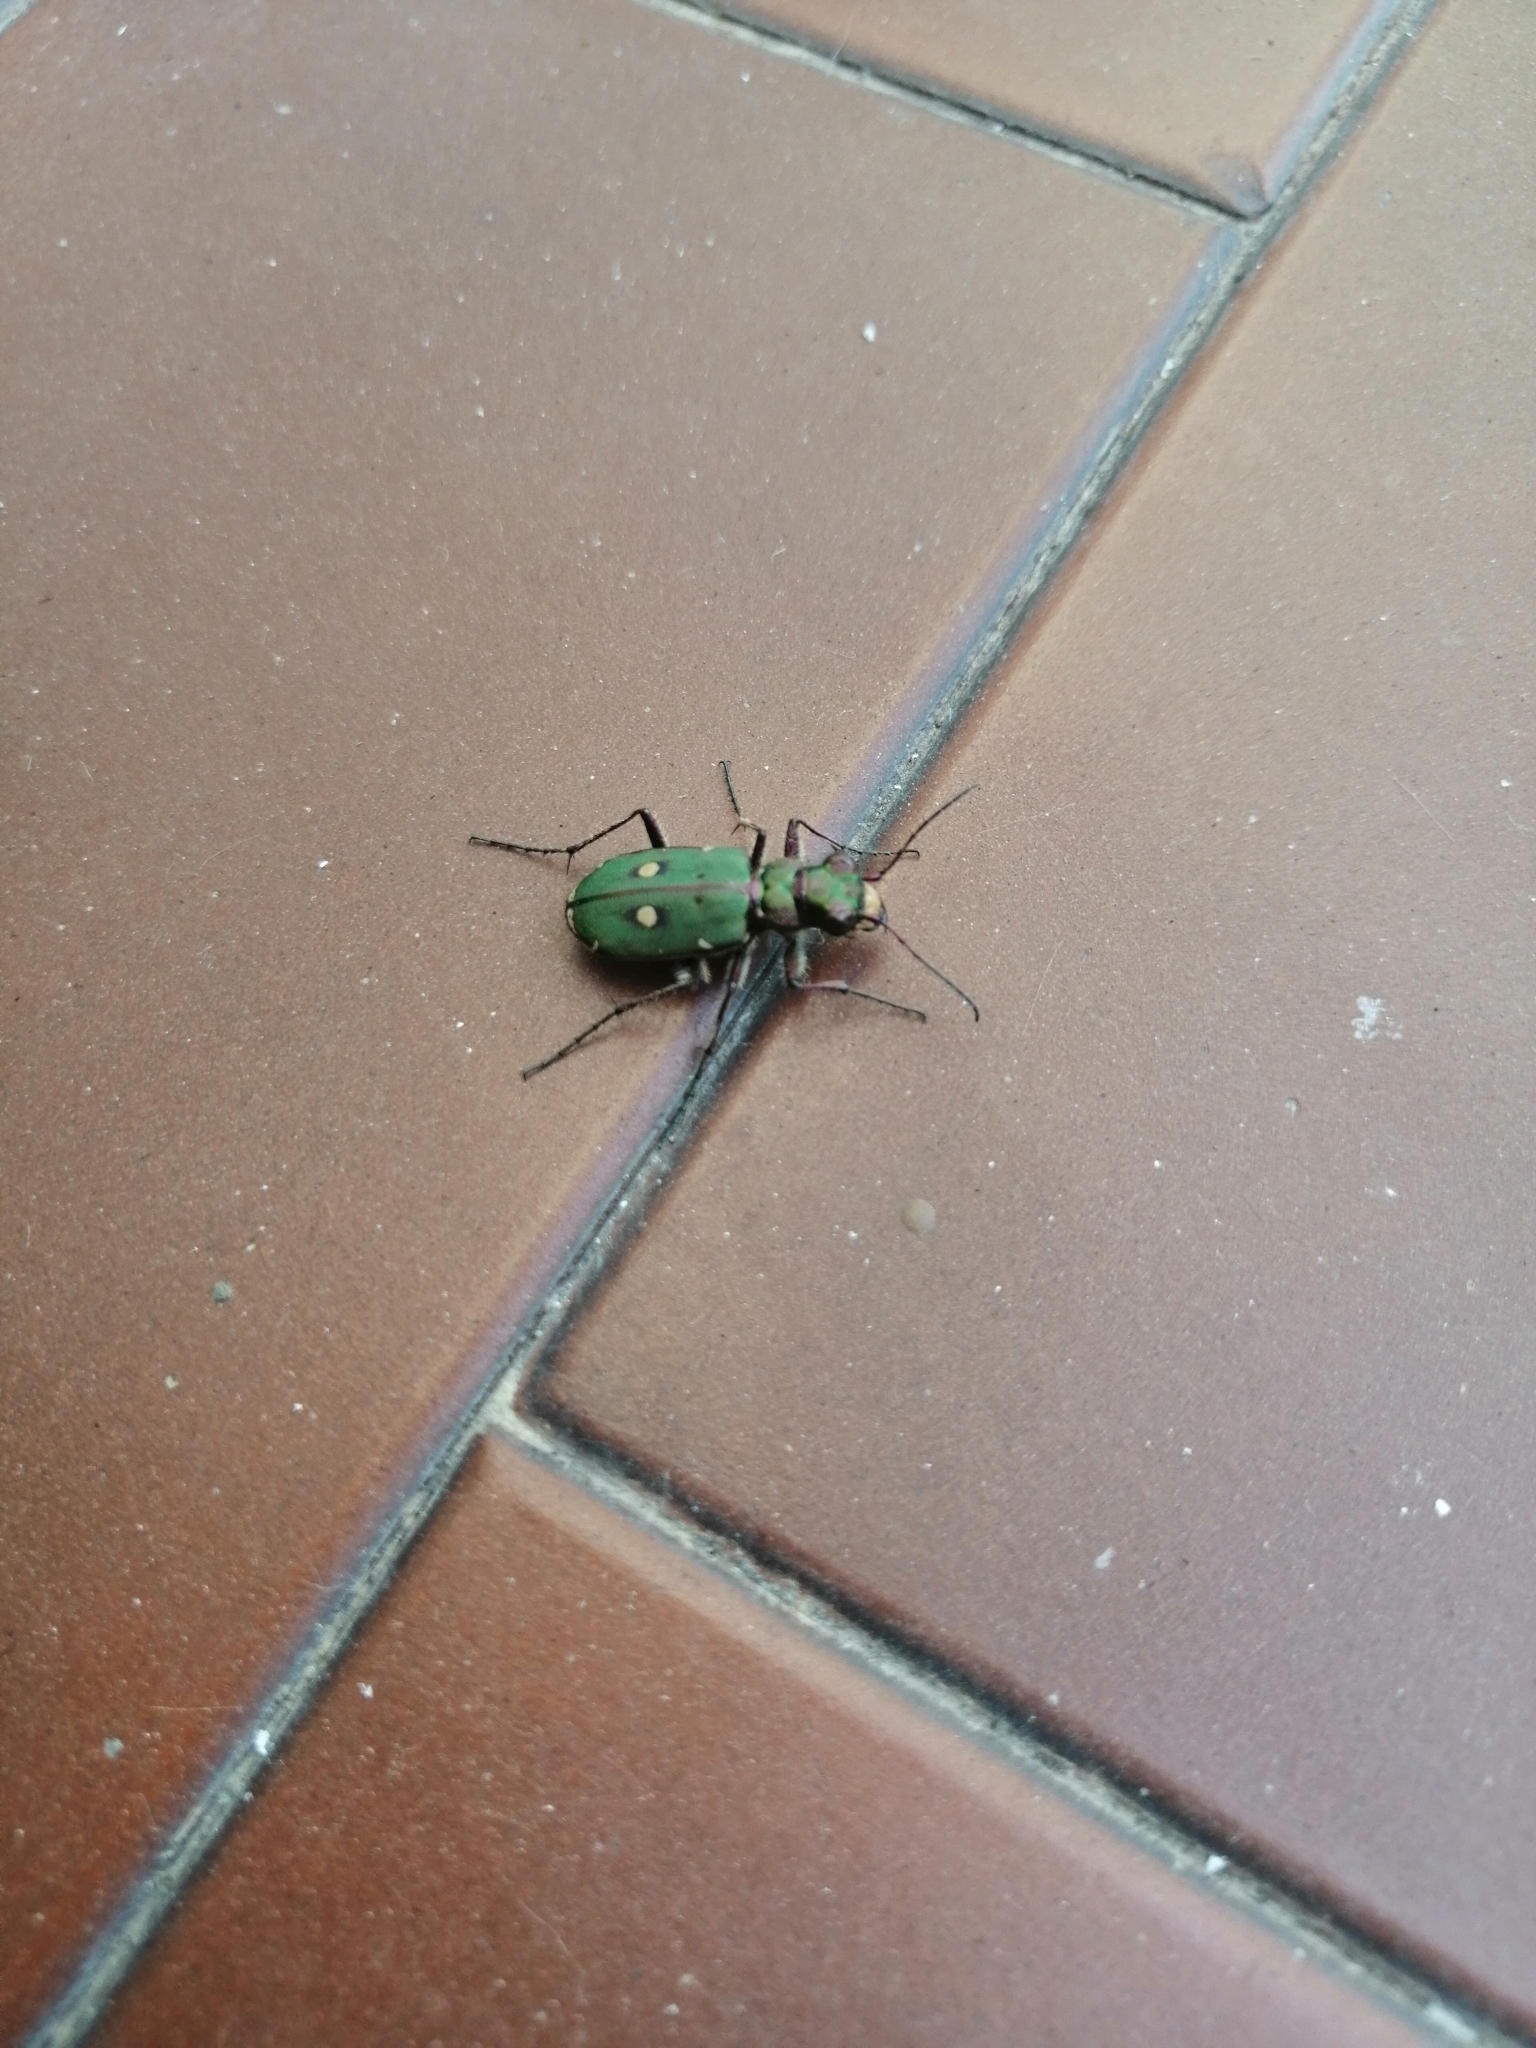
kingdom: Animalia
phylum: Arthropoda
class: Insecta
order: Coleoptera
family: Carabidae
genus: Cicindela
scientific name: Cicindela campestris
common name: Common tiger beetle
